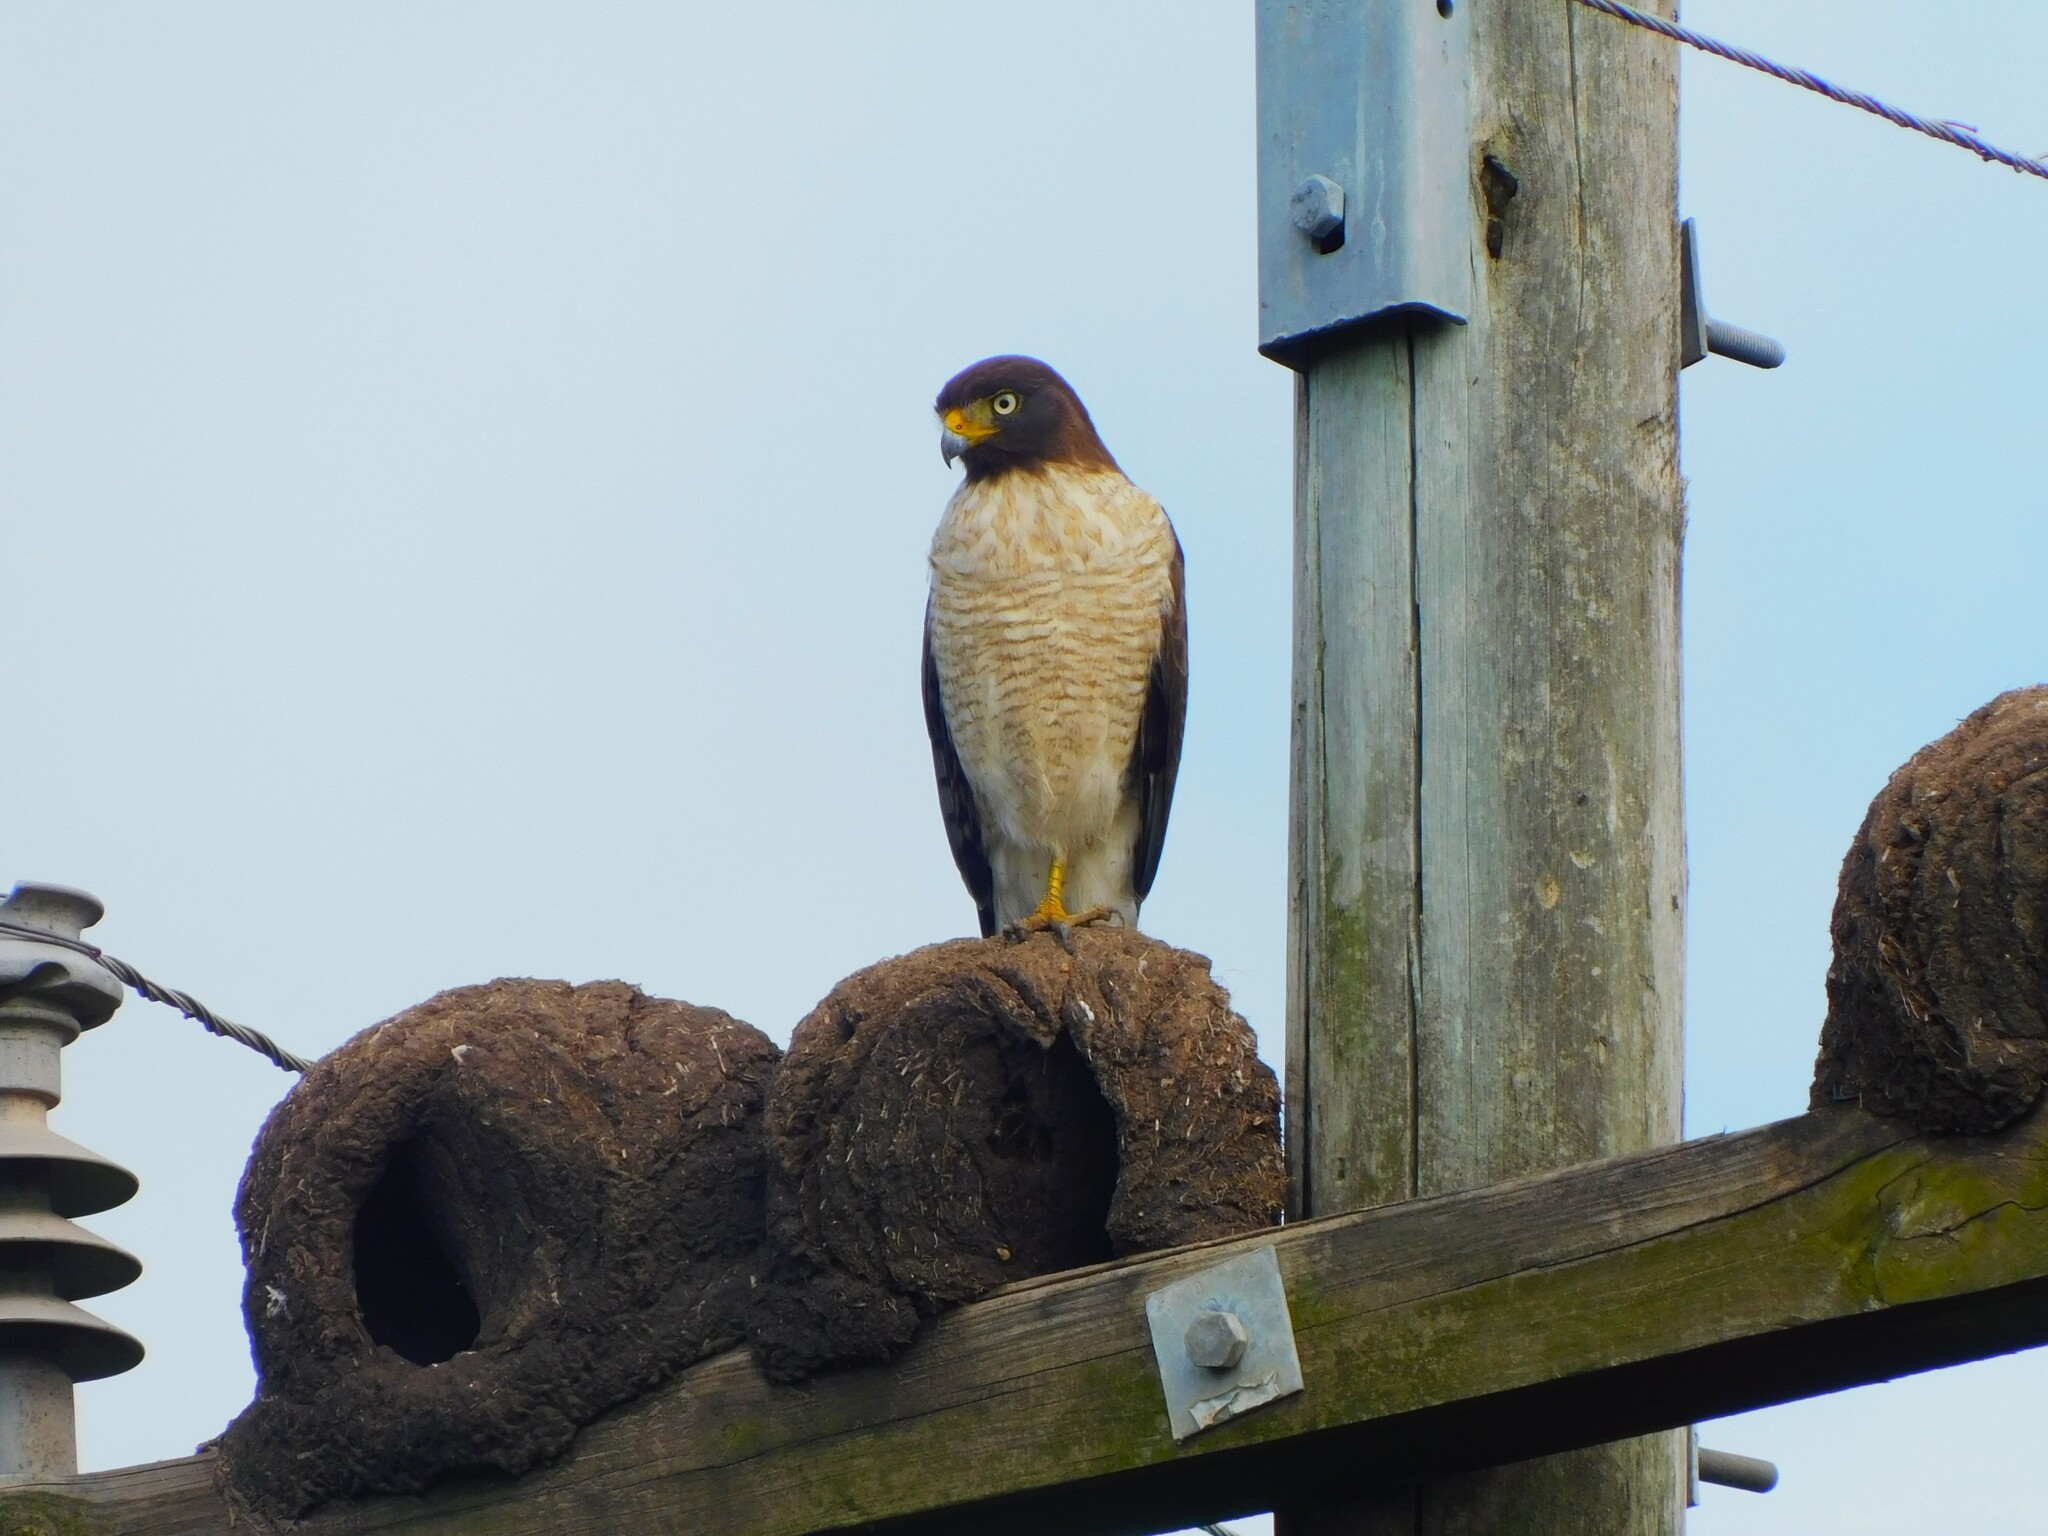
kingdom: Animalia
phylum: Chordata
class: Aves
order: Accipitriformes
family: Accipitridae
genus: Rupornis
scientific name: Rupornis magnirostris
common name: Roadside hawk
